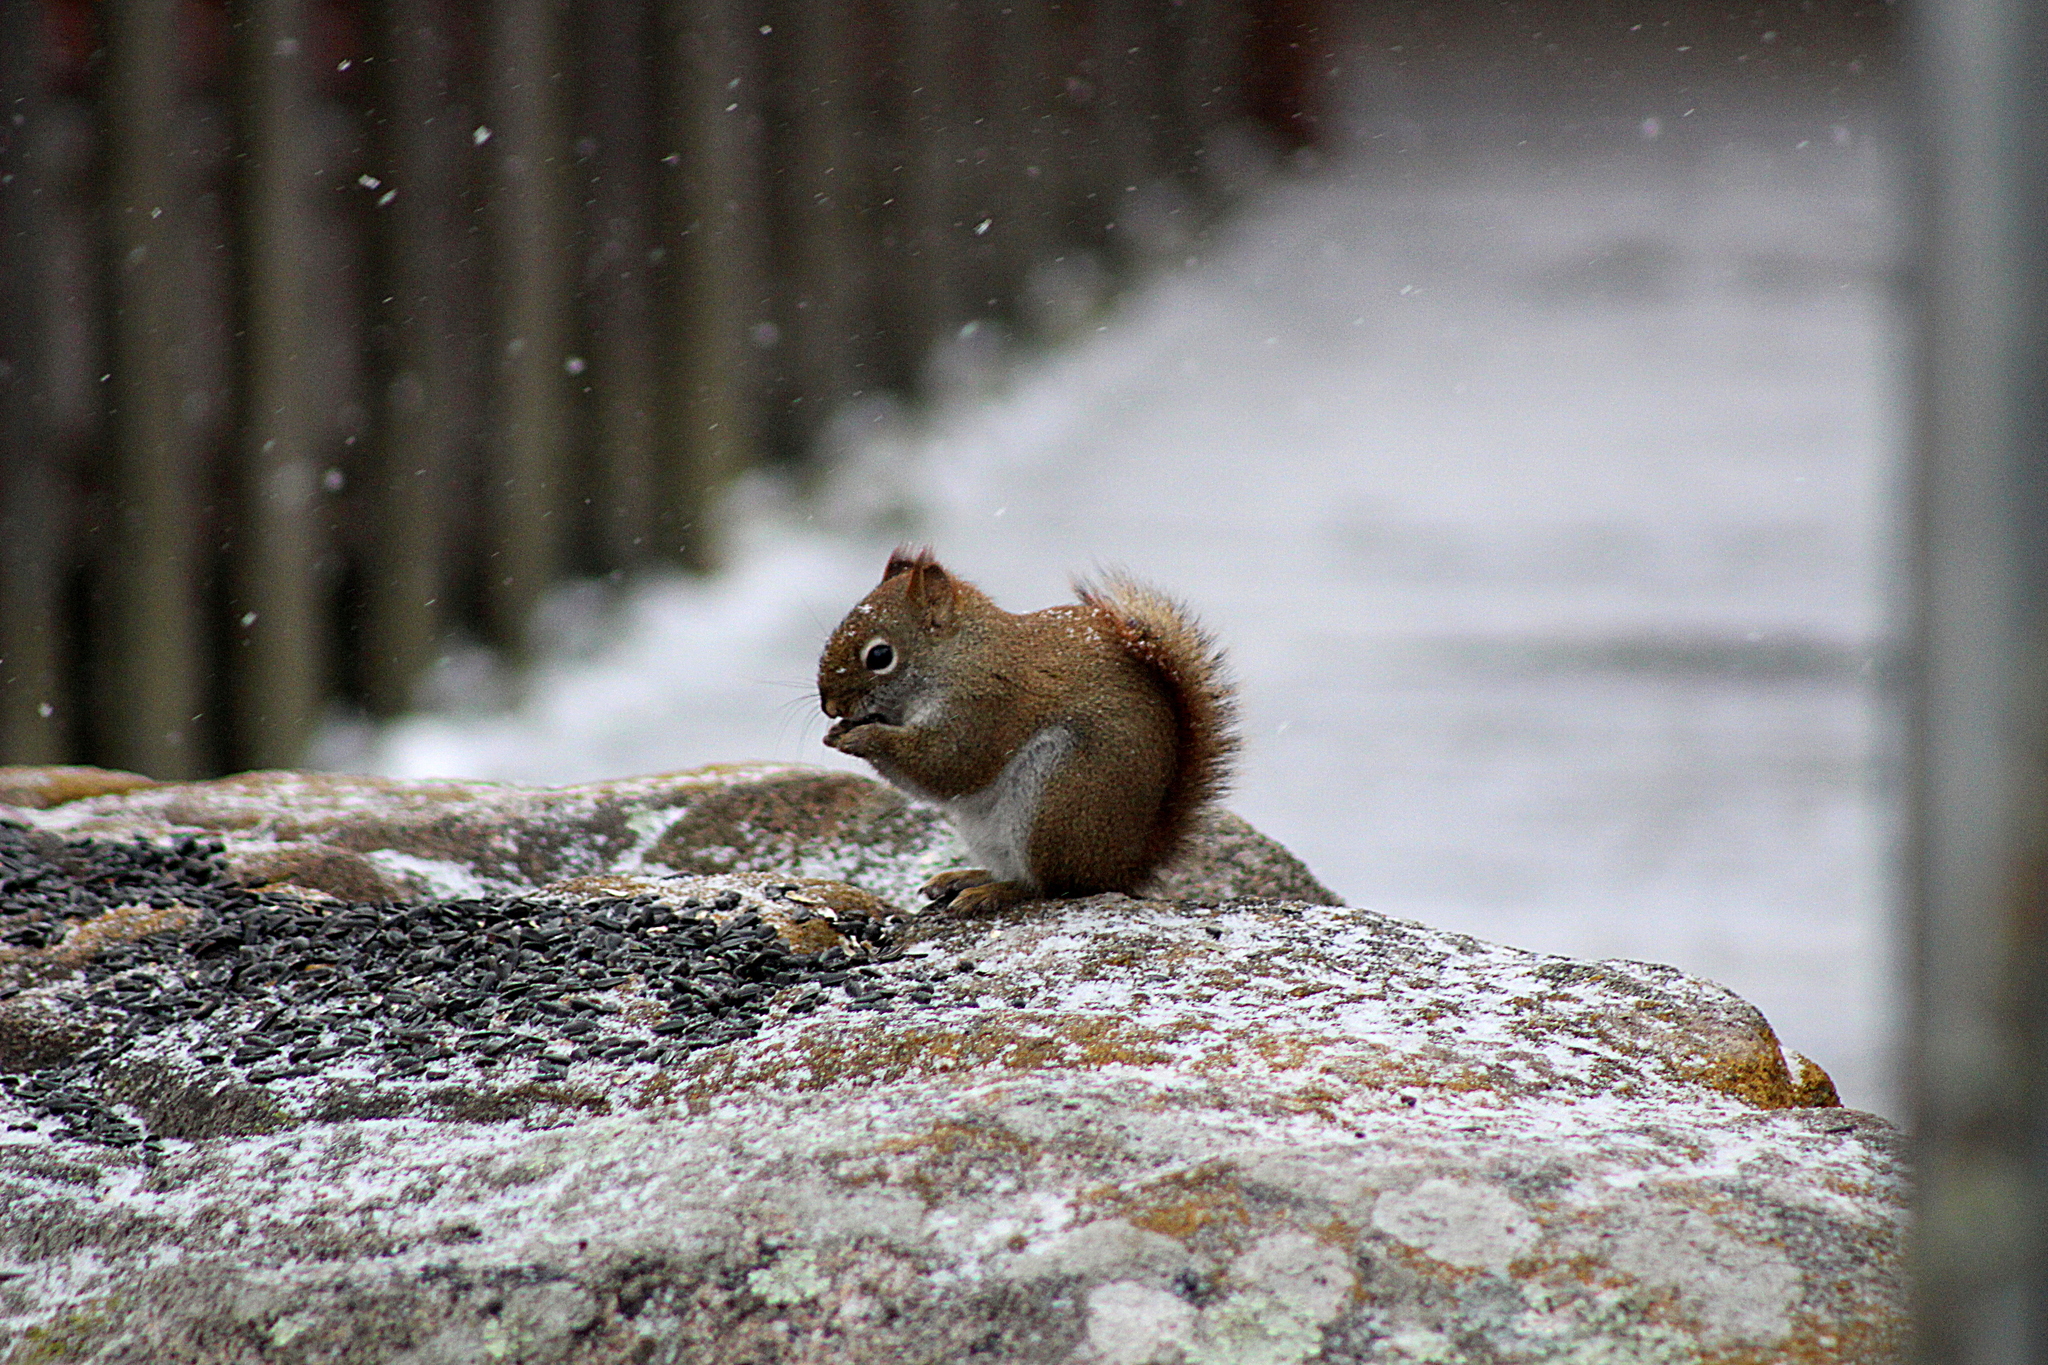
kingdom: Animalia
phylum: Chordata
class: Mammalia
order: Rodentia
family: Sciuridae
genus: Tamiasciurus
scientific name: Tamiasciurus hudsonicus
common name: Red squirrel
